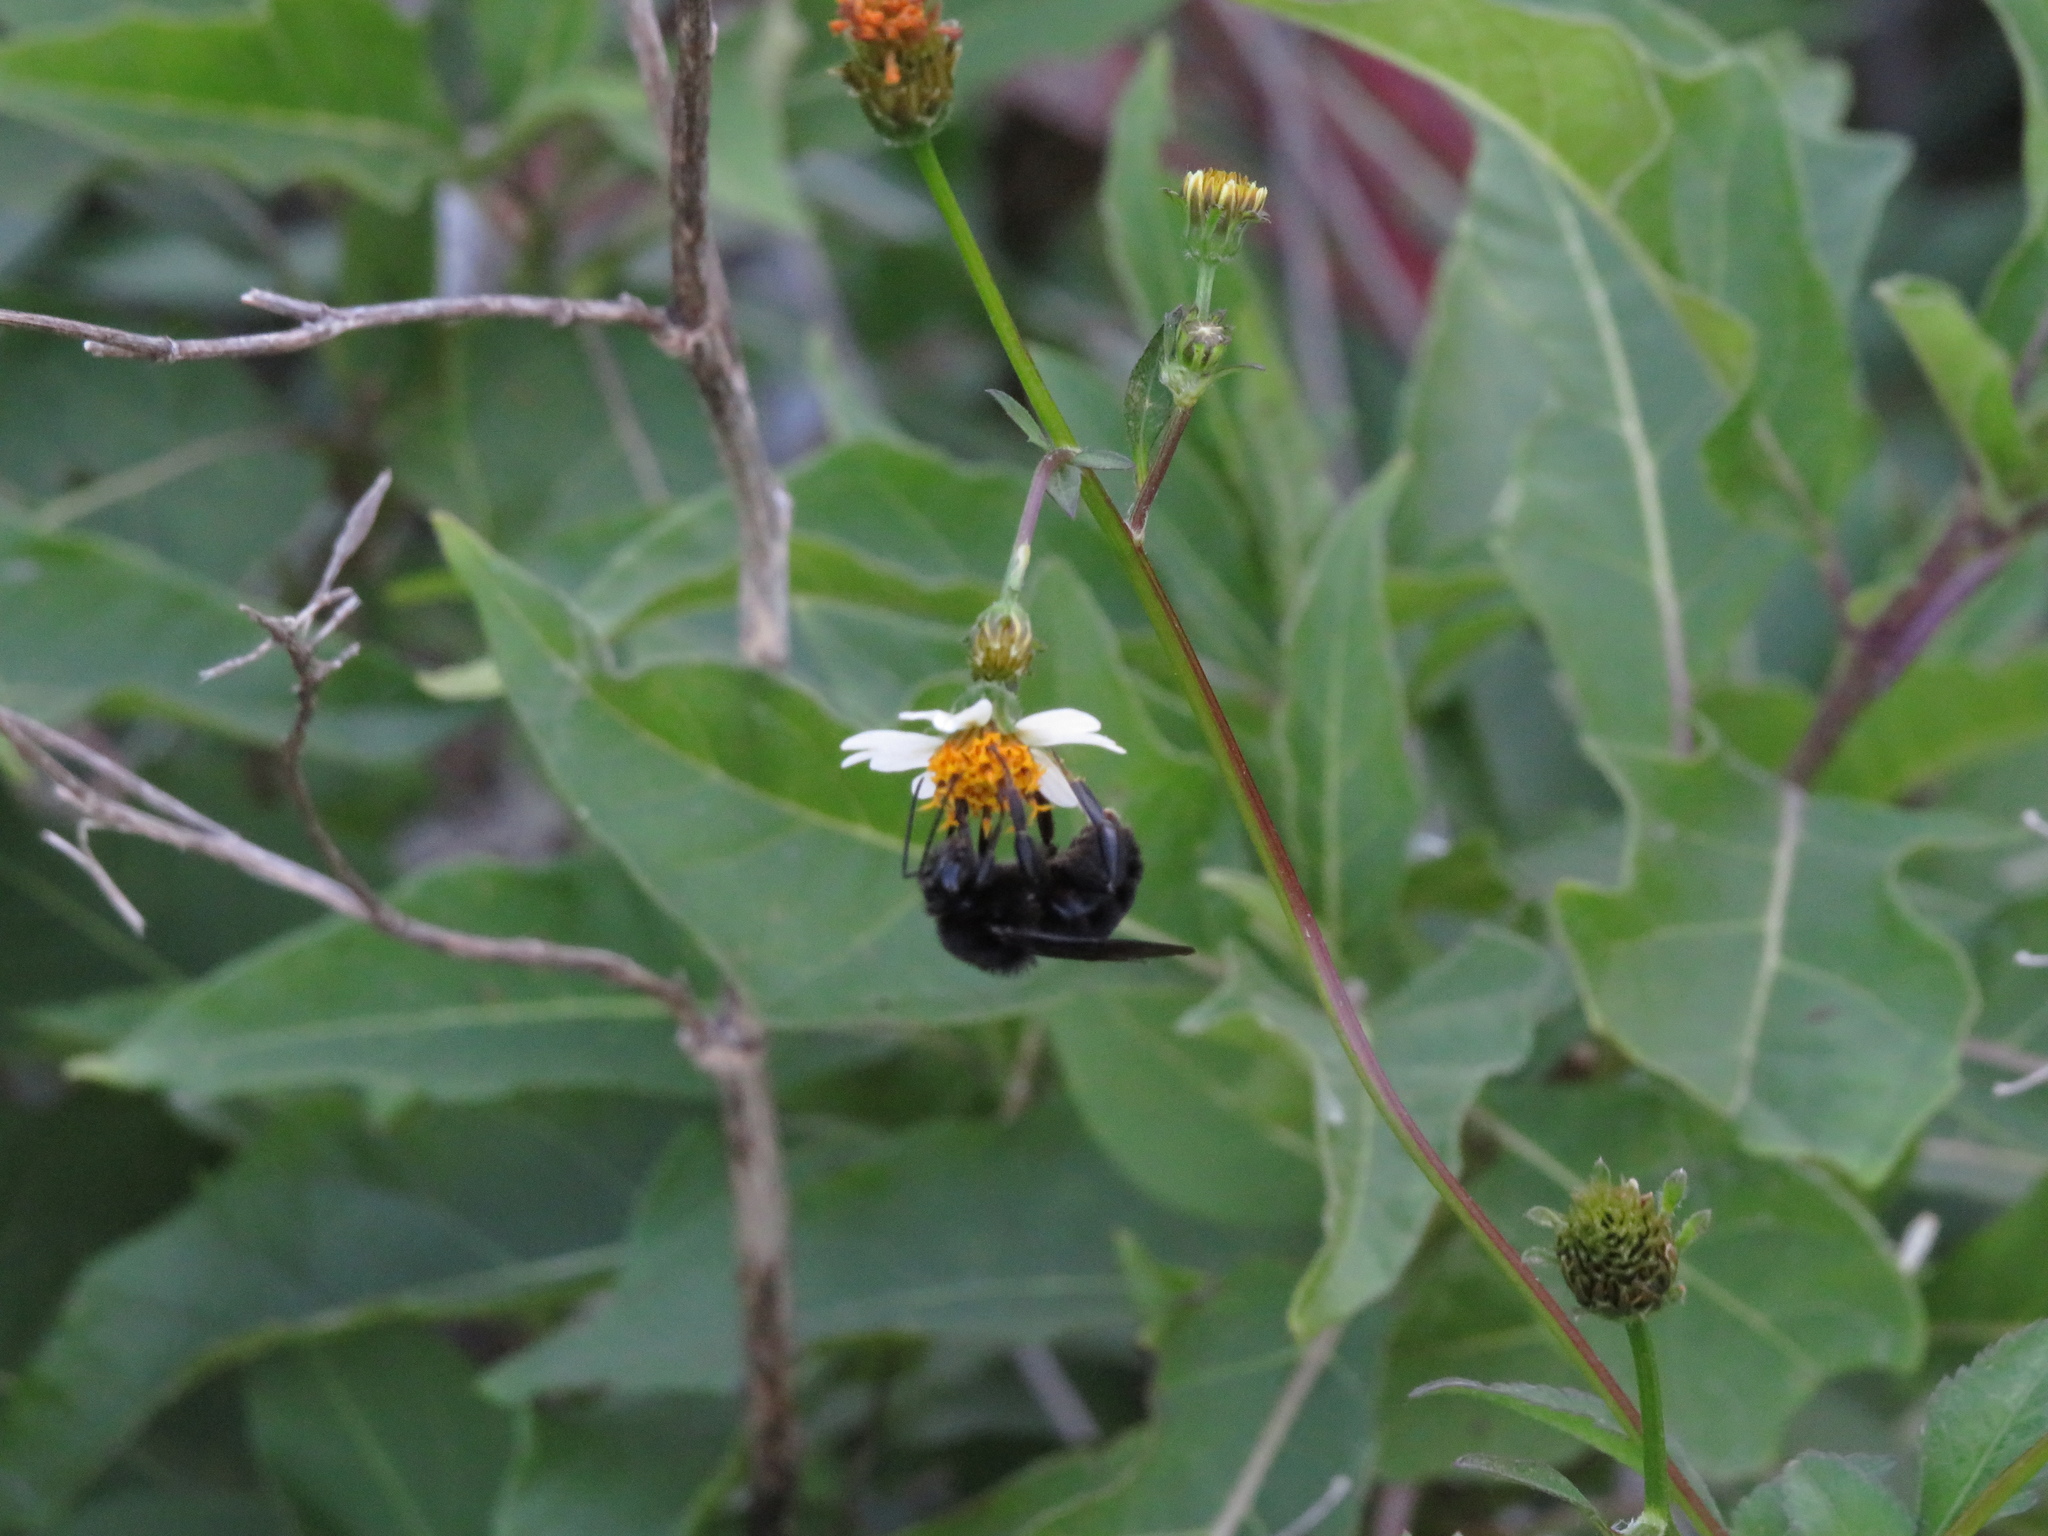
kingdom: Animalia
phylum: Arthropoda
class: Insecta
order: Hymenoptera
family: Apidae
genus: Bombus
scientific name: Bombus pauloensis
